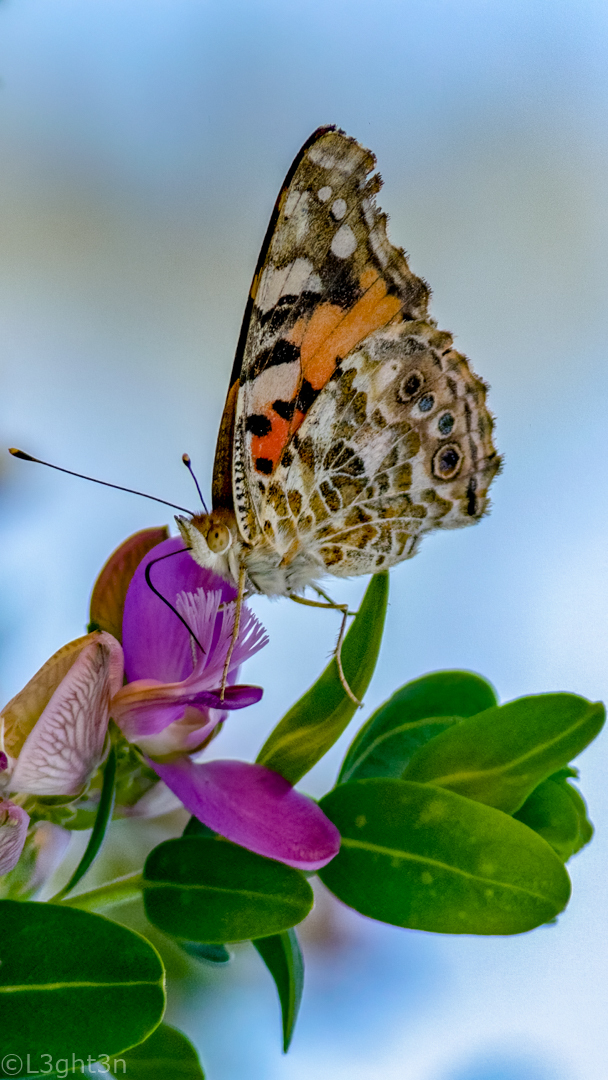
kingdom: Animalia
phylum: Arthropoda
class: Insecta
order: Lepidoptera
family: Nymphalidae
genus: Vanessa
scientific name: Vanessa cardui
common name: Painted lady
